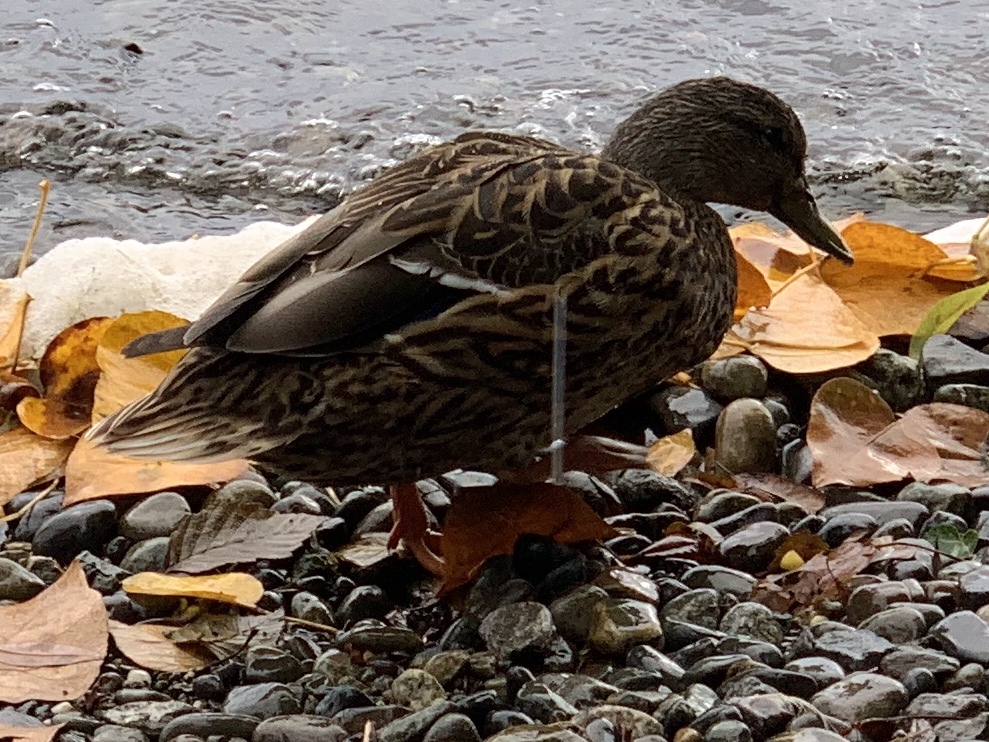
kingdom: Animalia
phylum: Chordata
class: Aves
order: Anseriformes
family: Anatidae
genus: Anas
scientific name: Anas platyrhynchos
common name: Mallard
